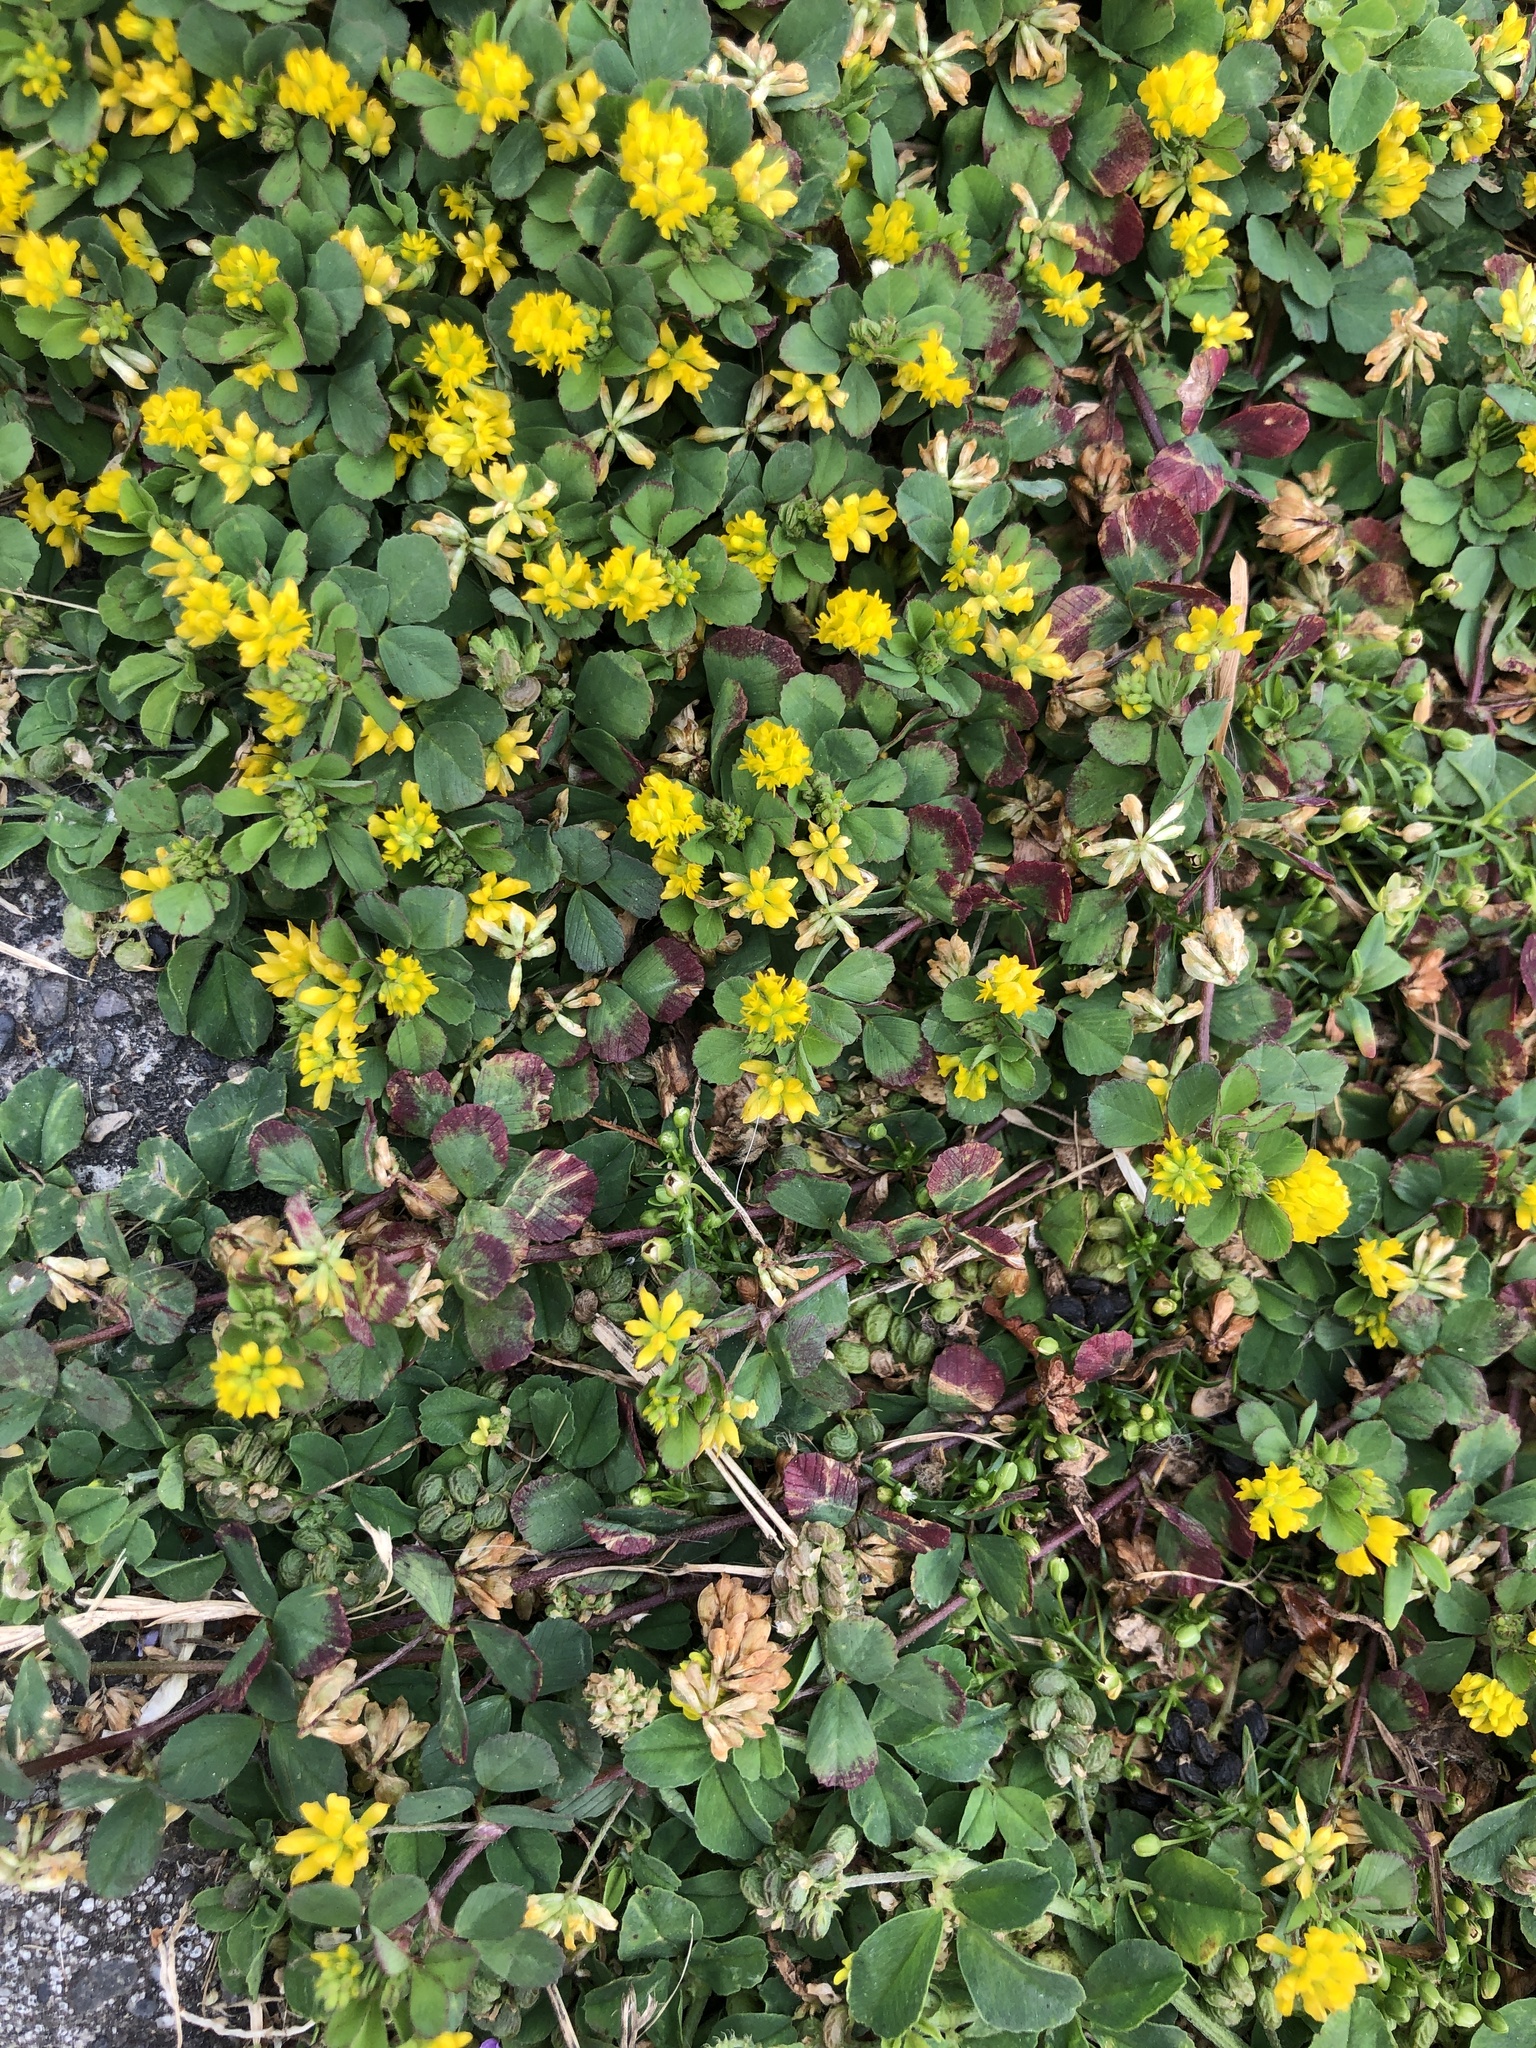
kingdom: Plantae
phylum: Tracheophyta
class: Magnoliopsida
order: Fabales
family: Fabaceae
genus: Trifolium
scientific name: Trifolium dubium
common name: Suckling clover
